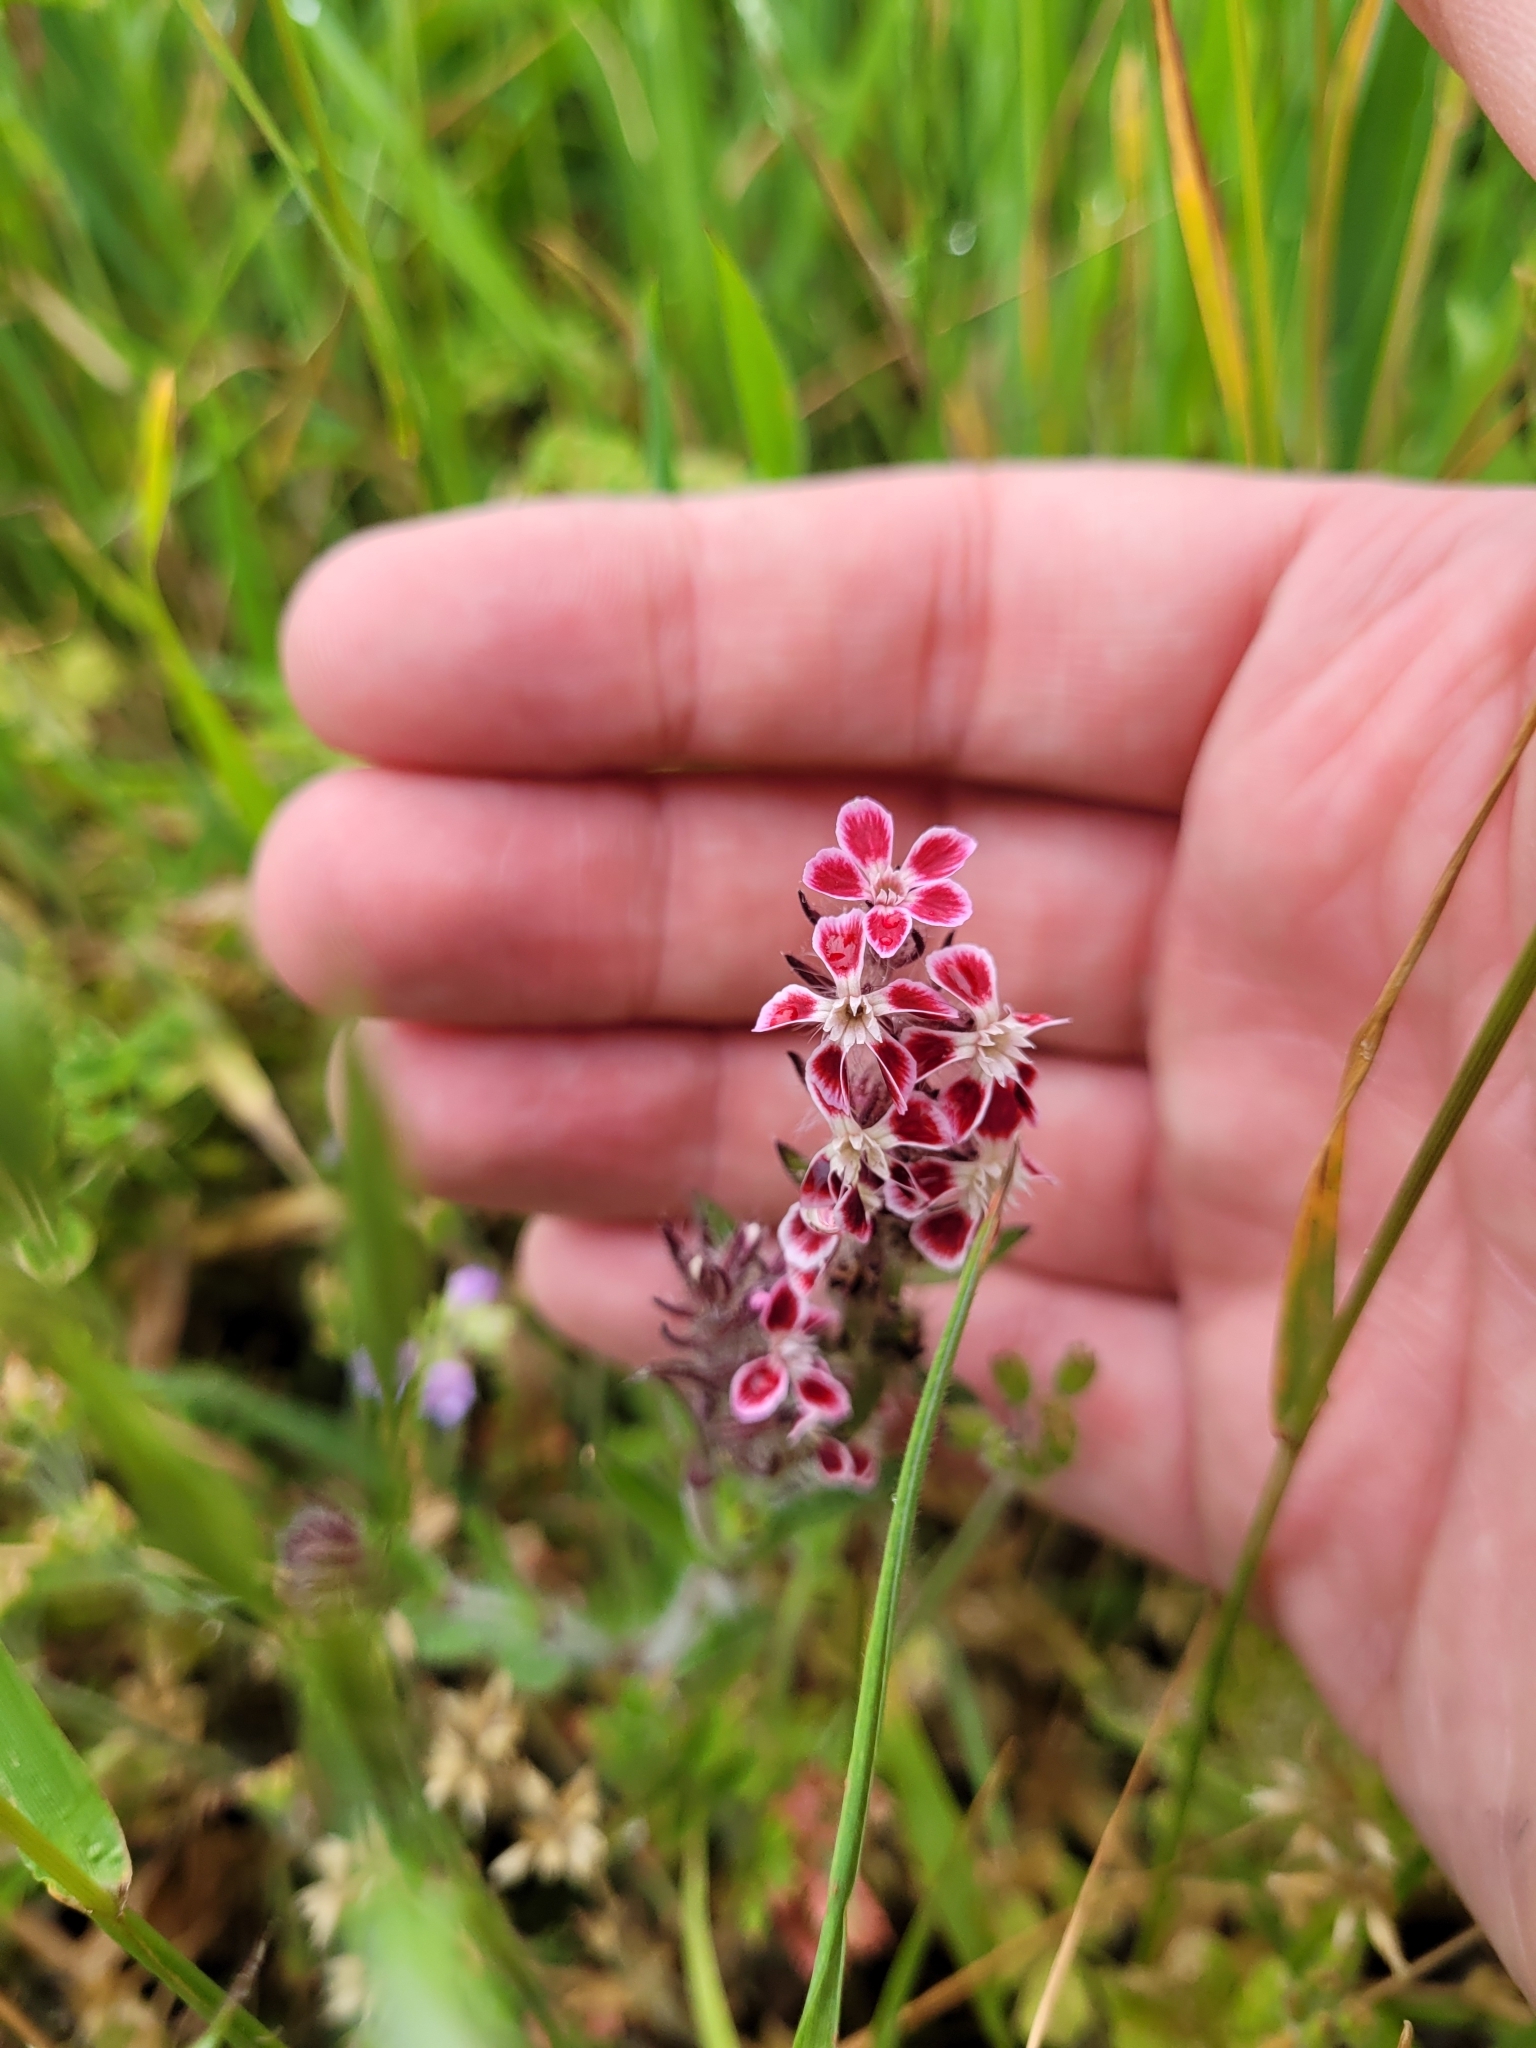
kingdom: Plantae
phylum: Tracheophyta
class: Magnoliopsida
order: Caryophyllales
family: Caryophyllaceae
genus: Silene
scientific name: Silene gallica
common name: Small-flowered catchfly
